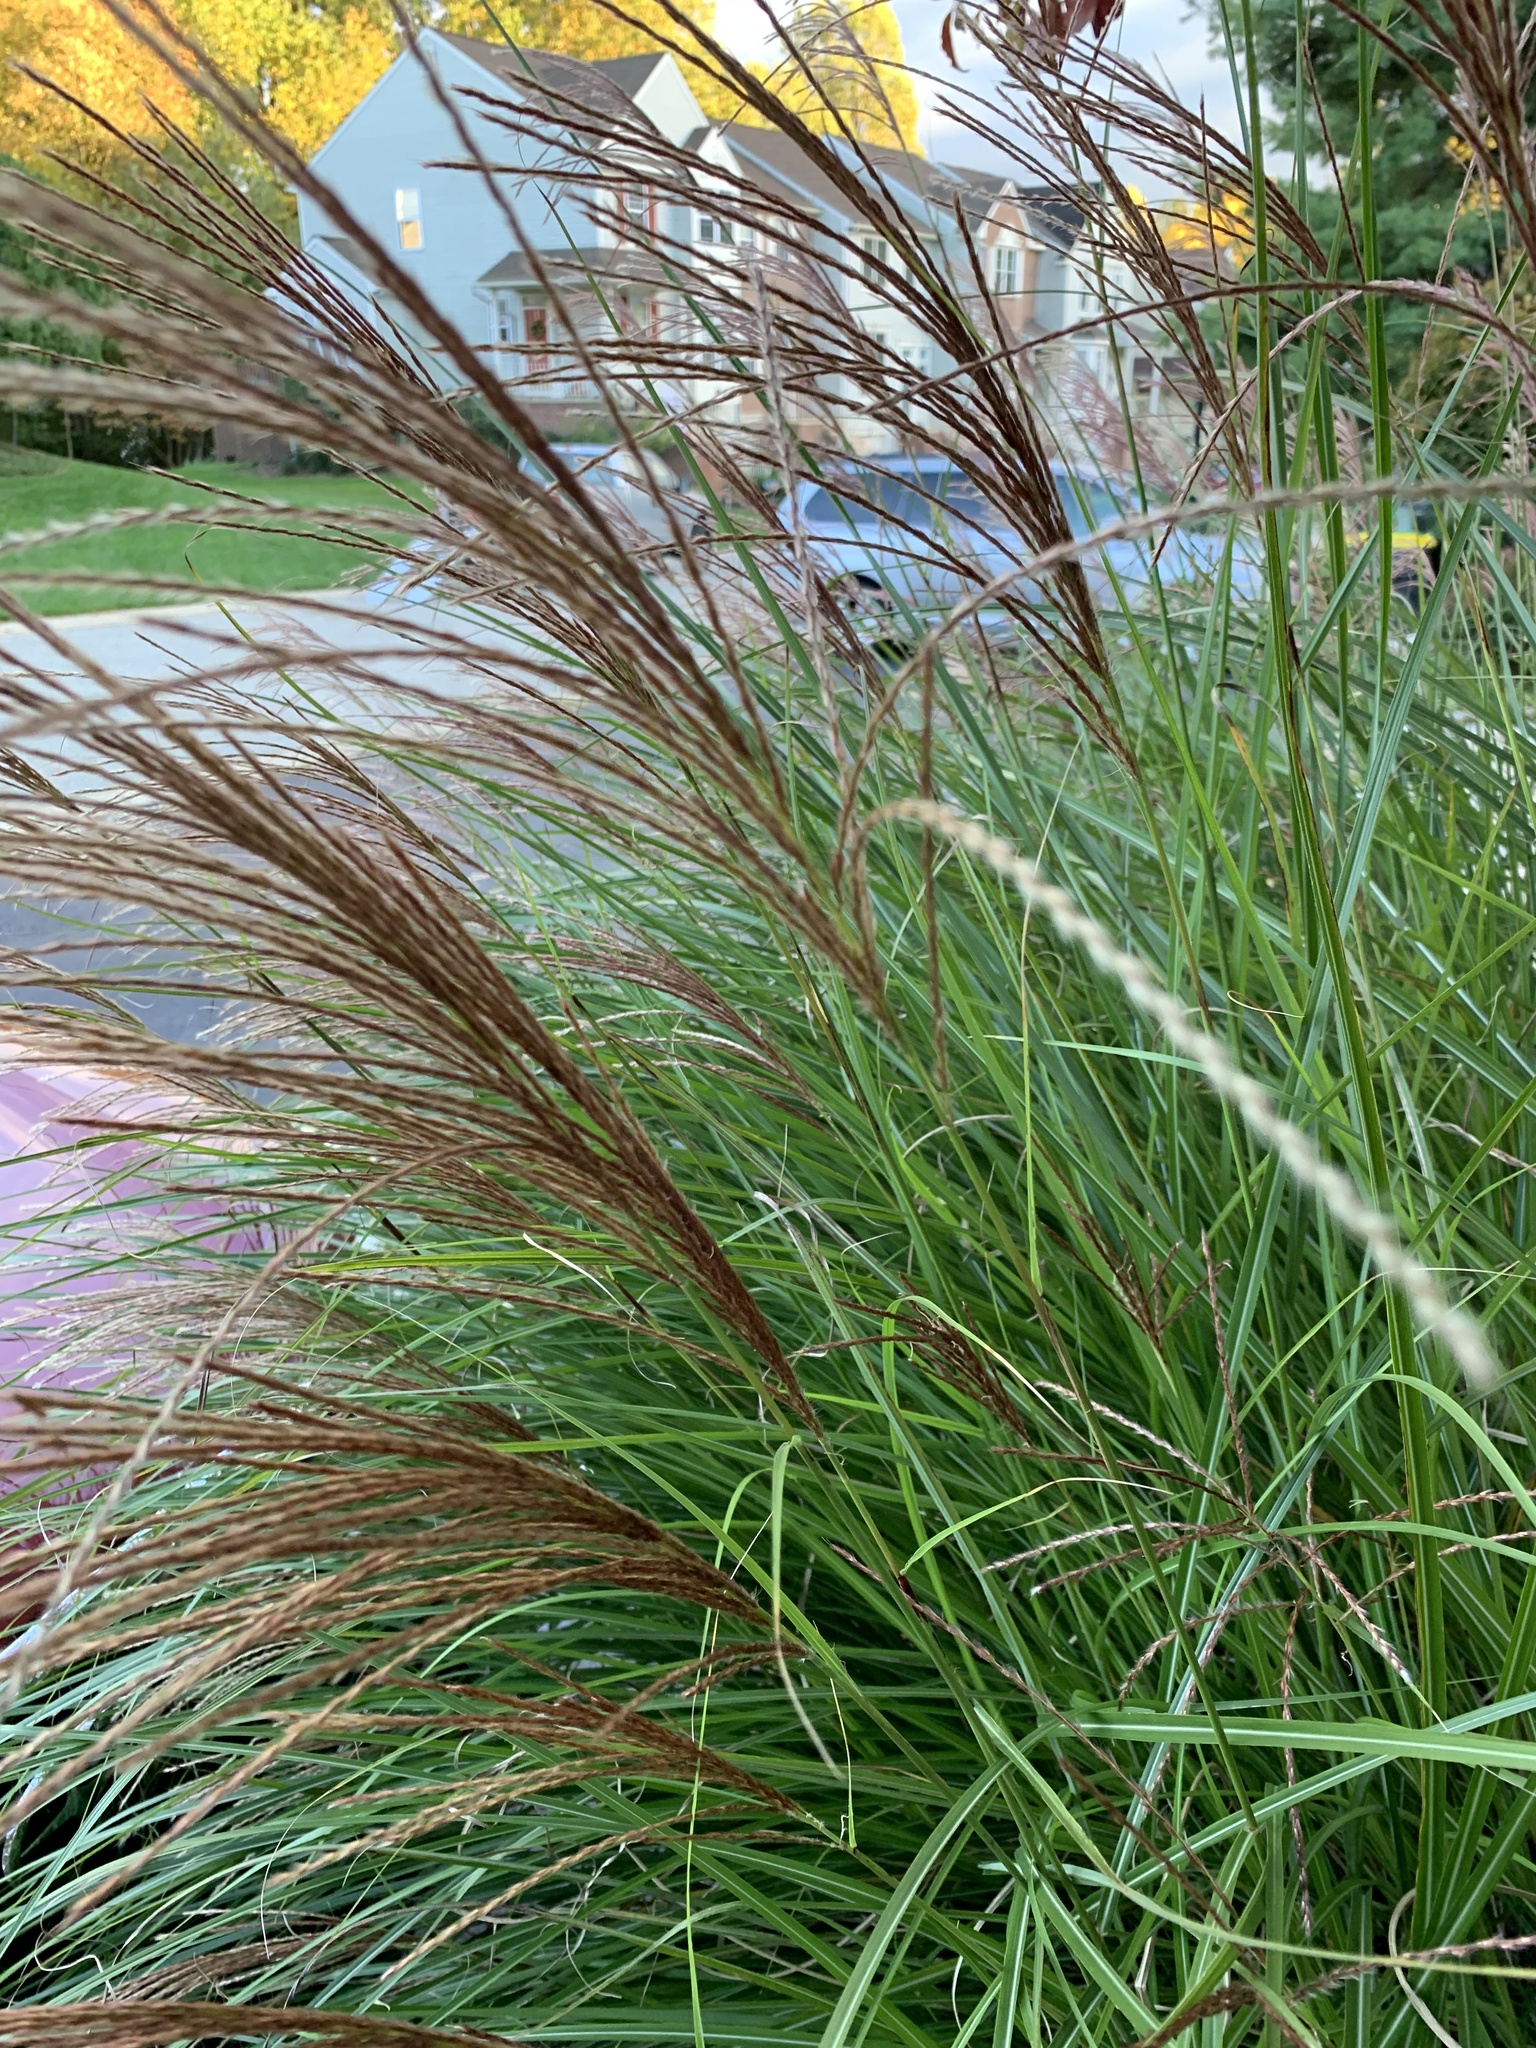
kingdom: Plantae
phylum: Tracheophyta
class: Liliopsida
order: Poales
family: Poaceae
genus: Miscanthus
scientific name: Miscanthus sinensis
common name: Chinese silvergrass
